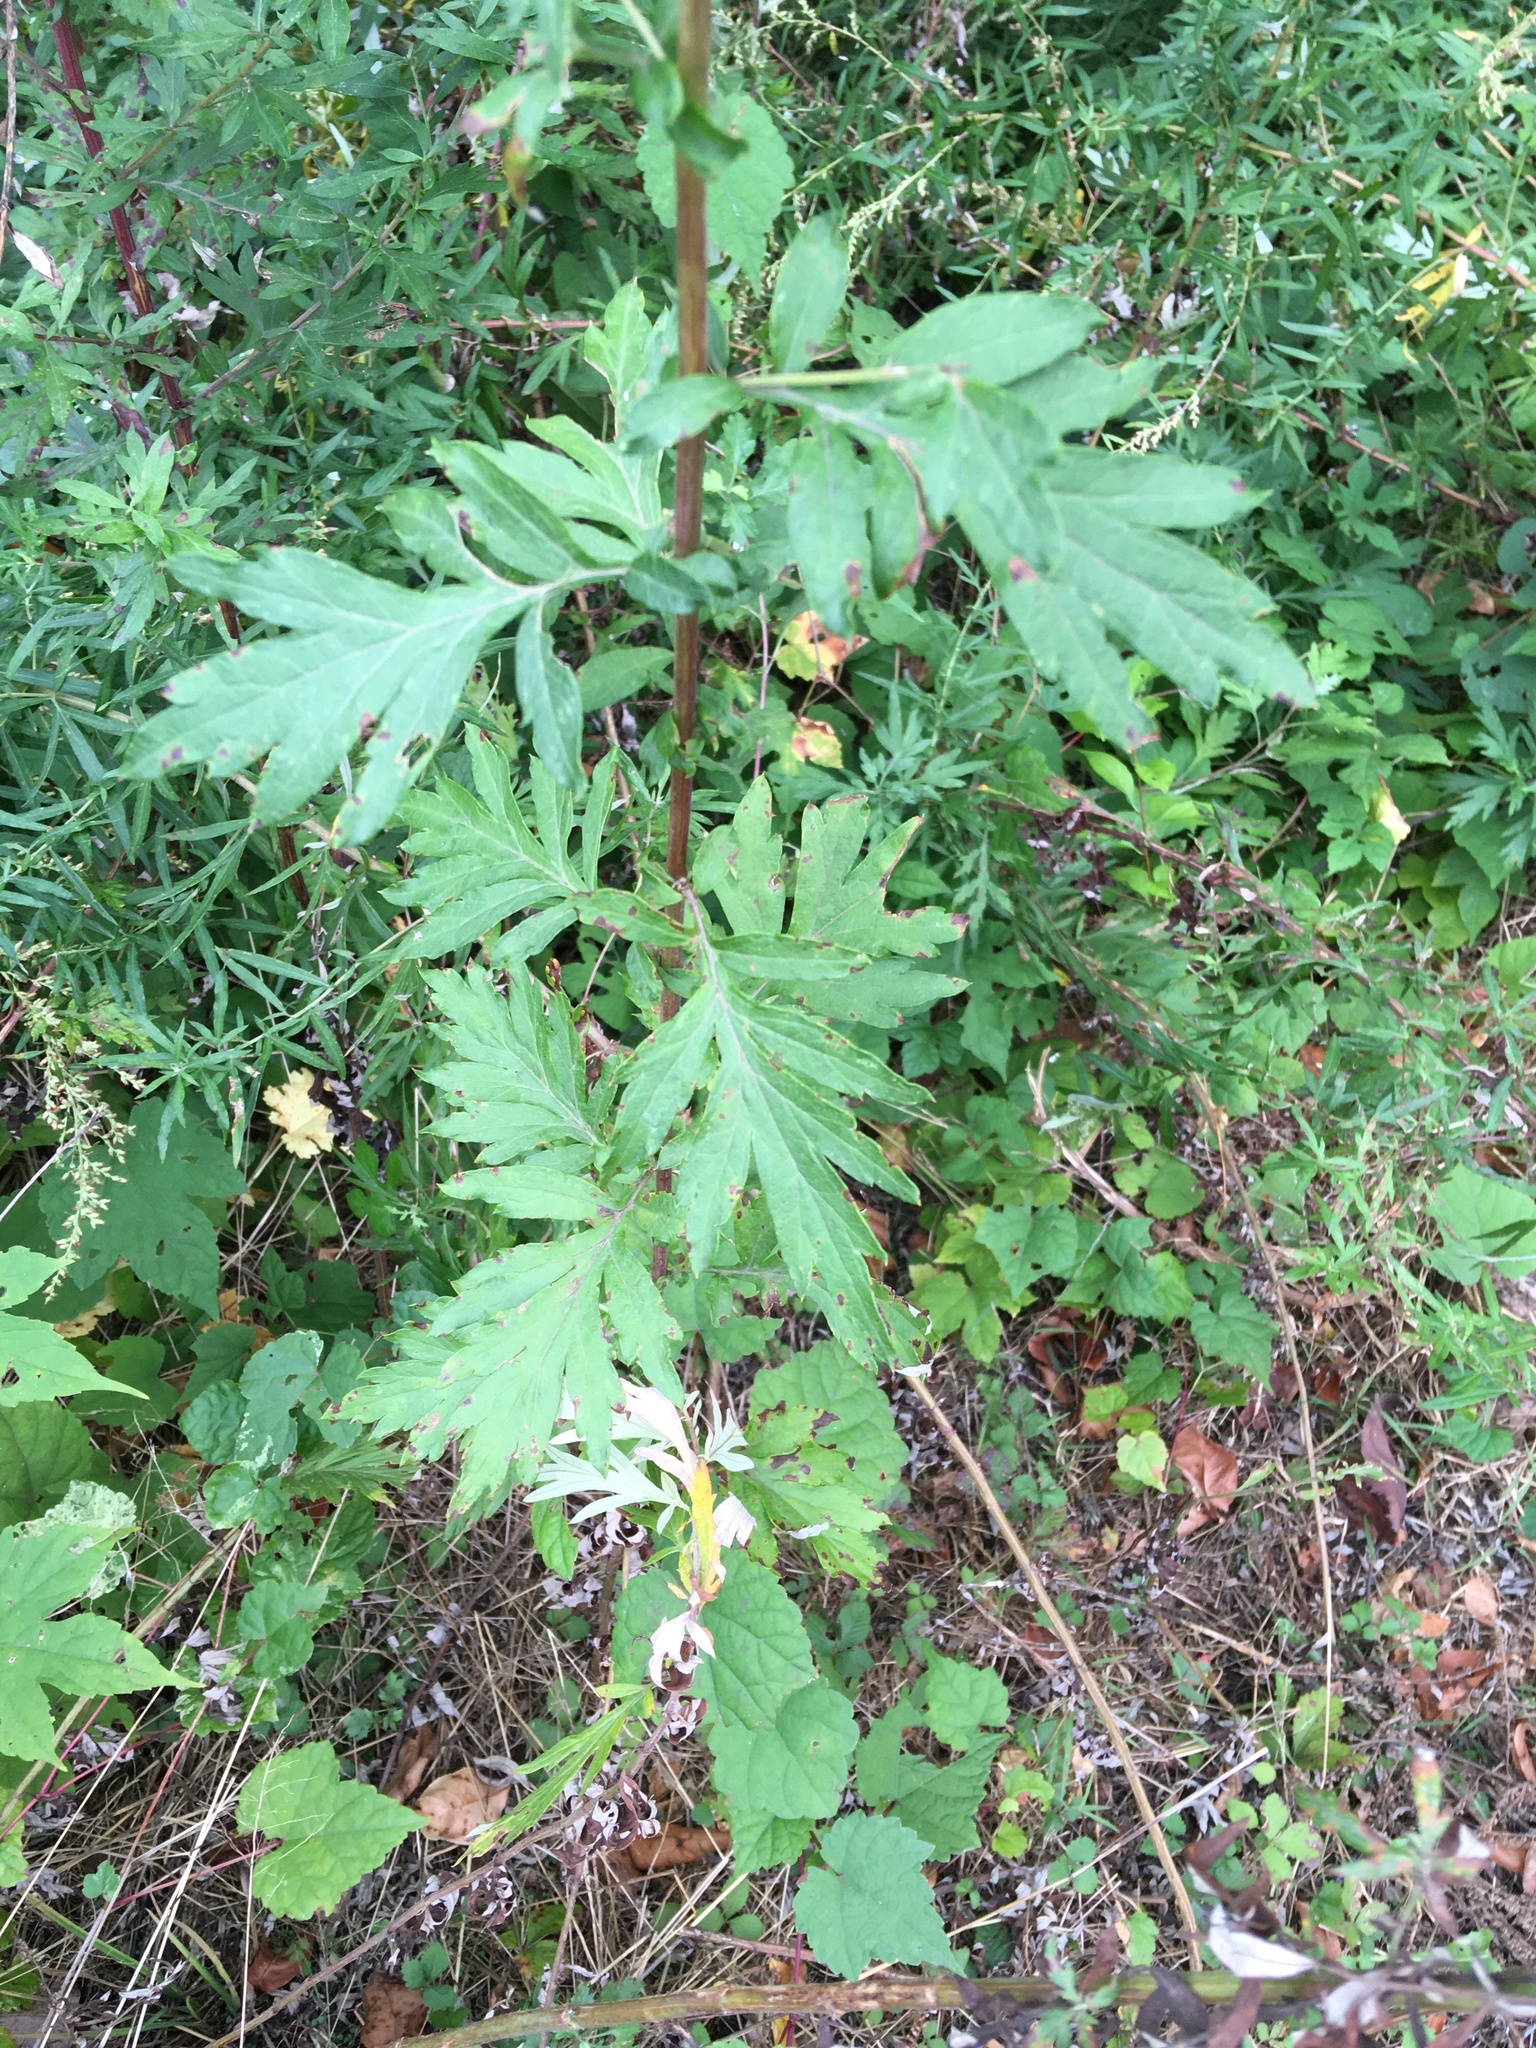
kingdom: Plantae
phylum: Tracheophyta
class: Magnoliopsida
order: Asterales
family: Asteraceae
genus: Artemisia
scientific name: Artemisia vulgaris
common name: Mugwort
